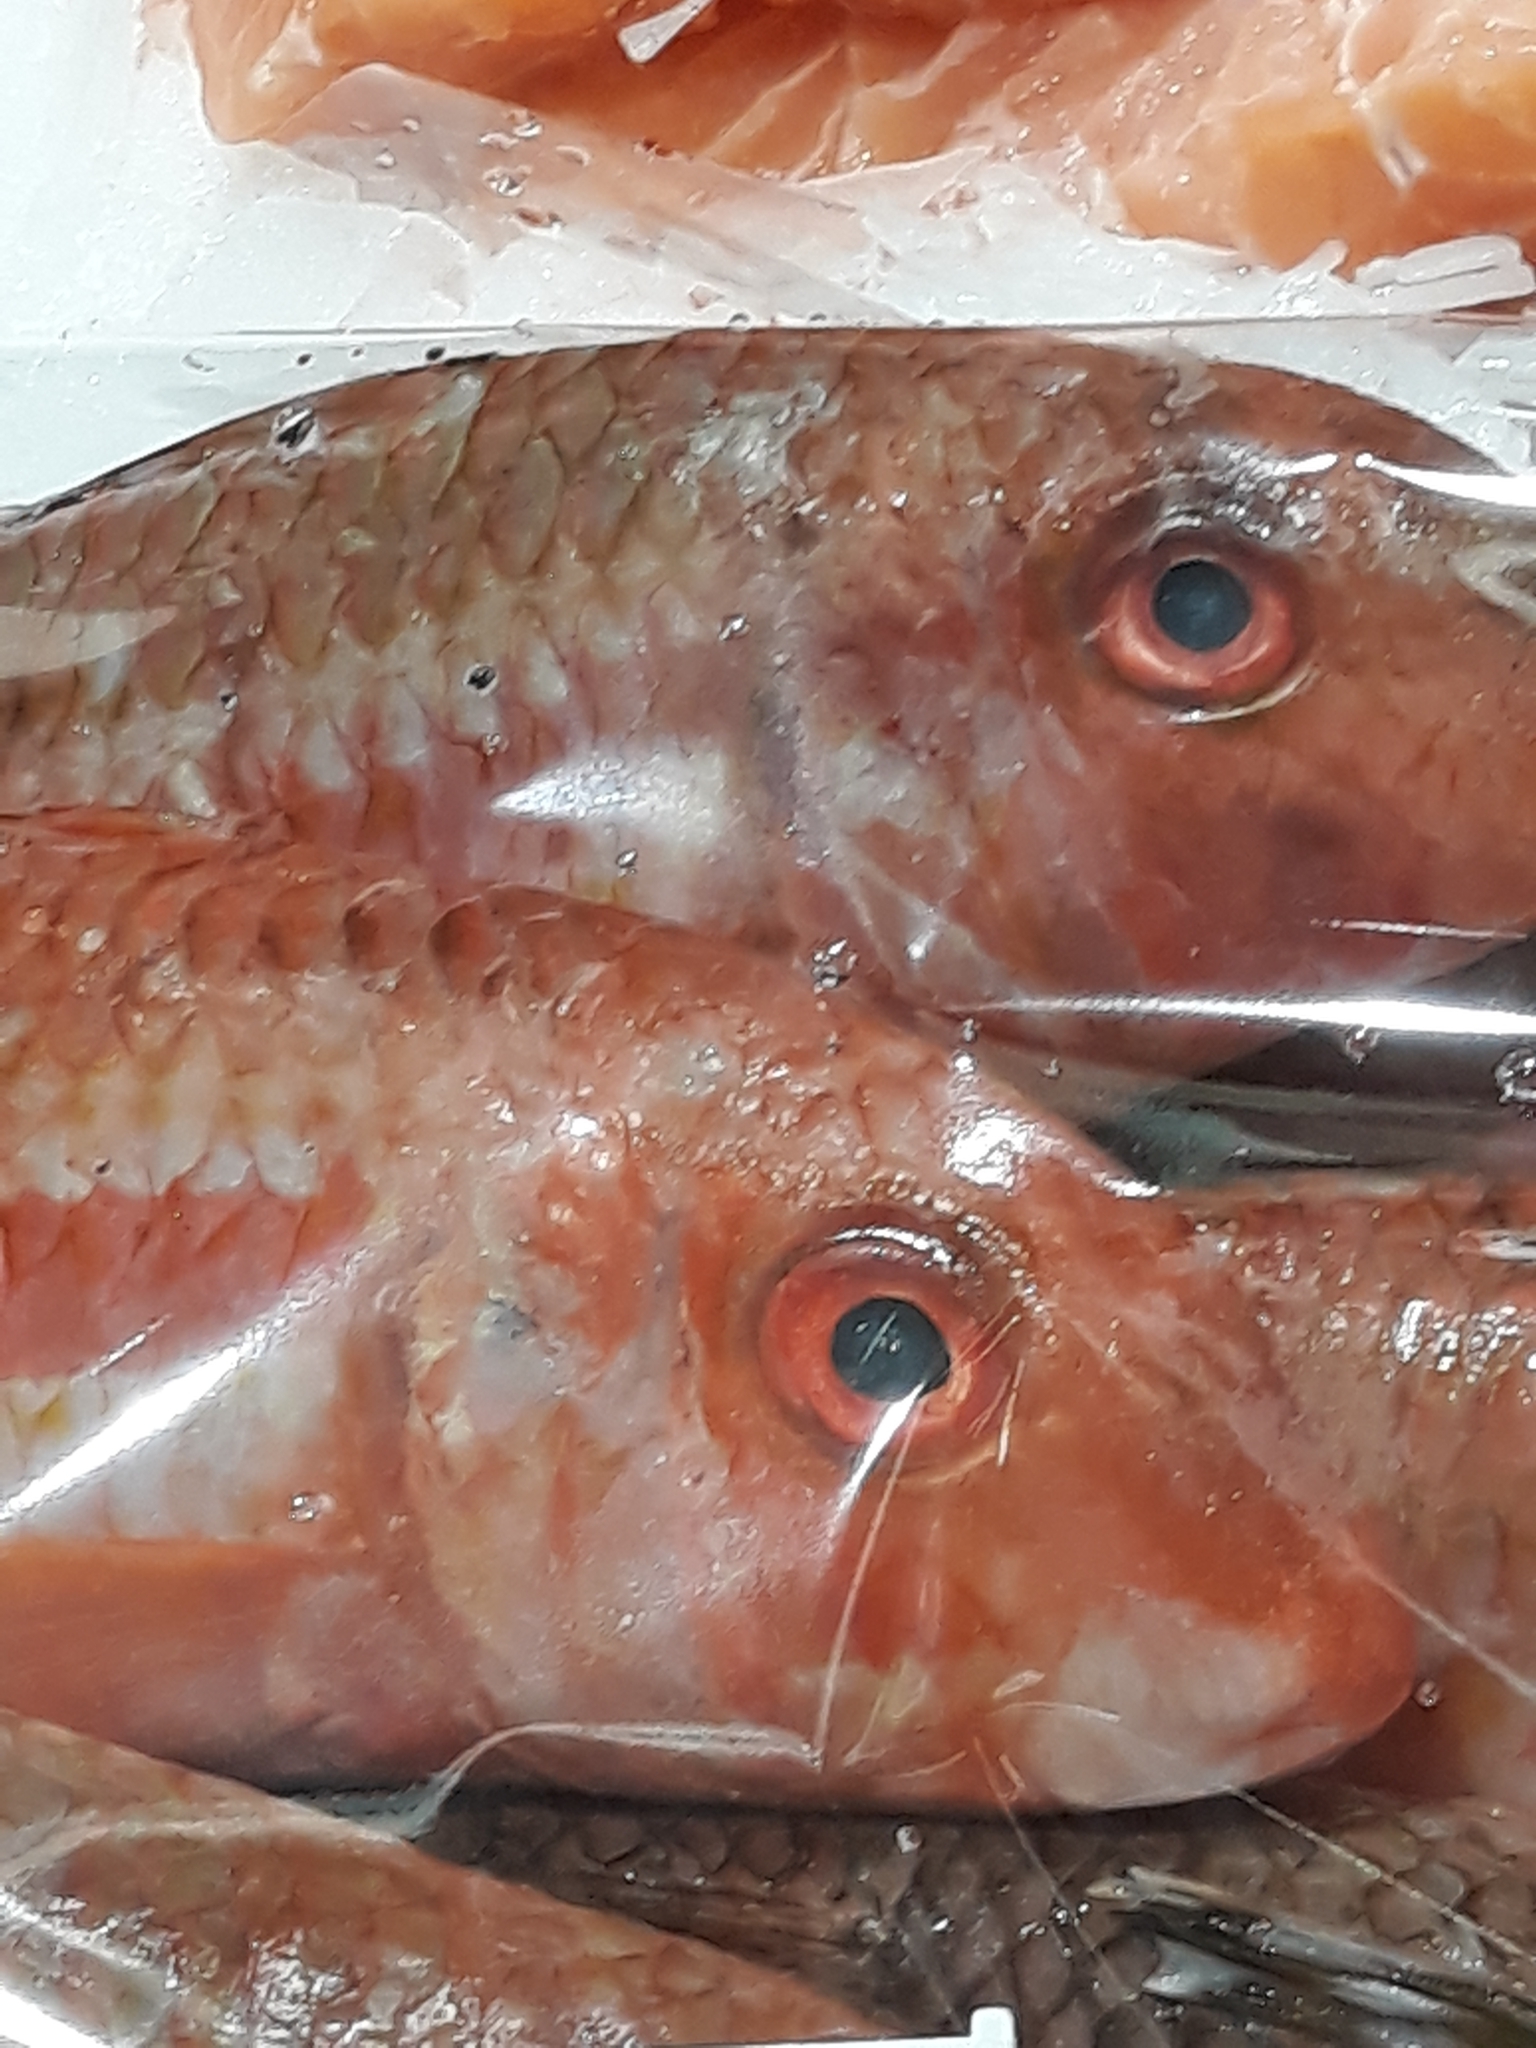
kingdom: Animalia
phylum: Chordata
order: Perciformes
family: Mullidae
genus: Mullus
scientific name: Mullus surmuletus
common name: Red mullet
